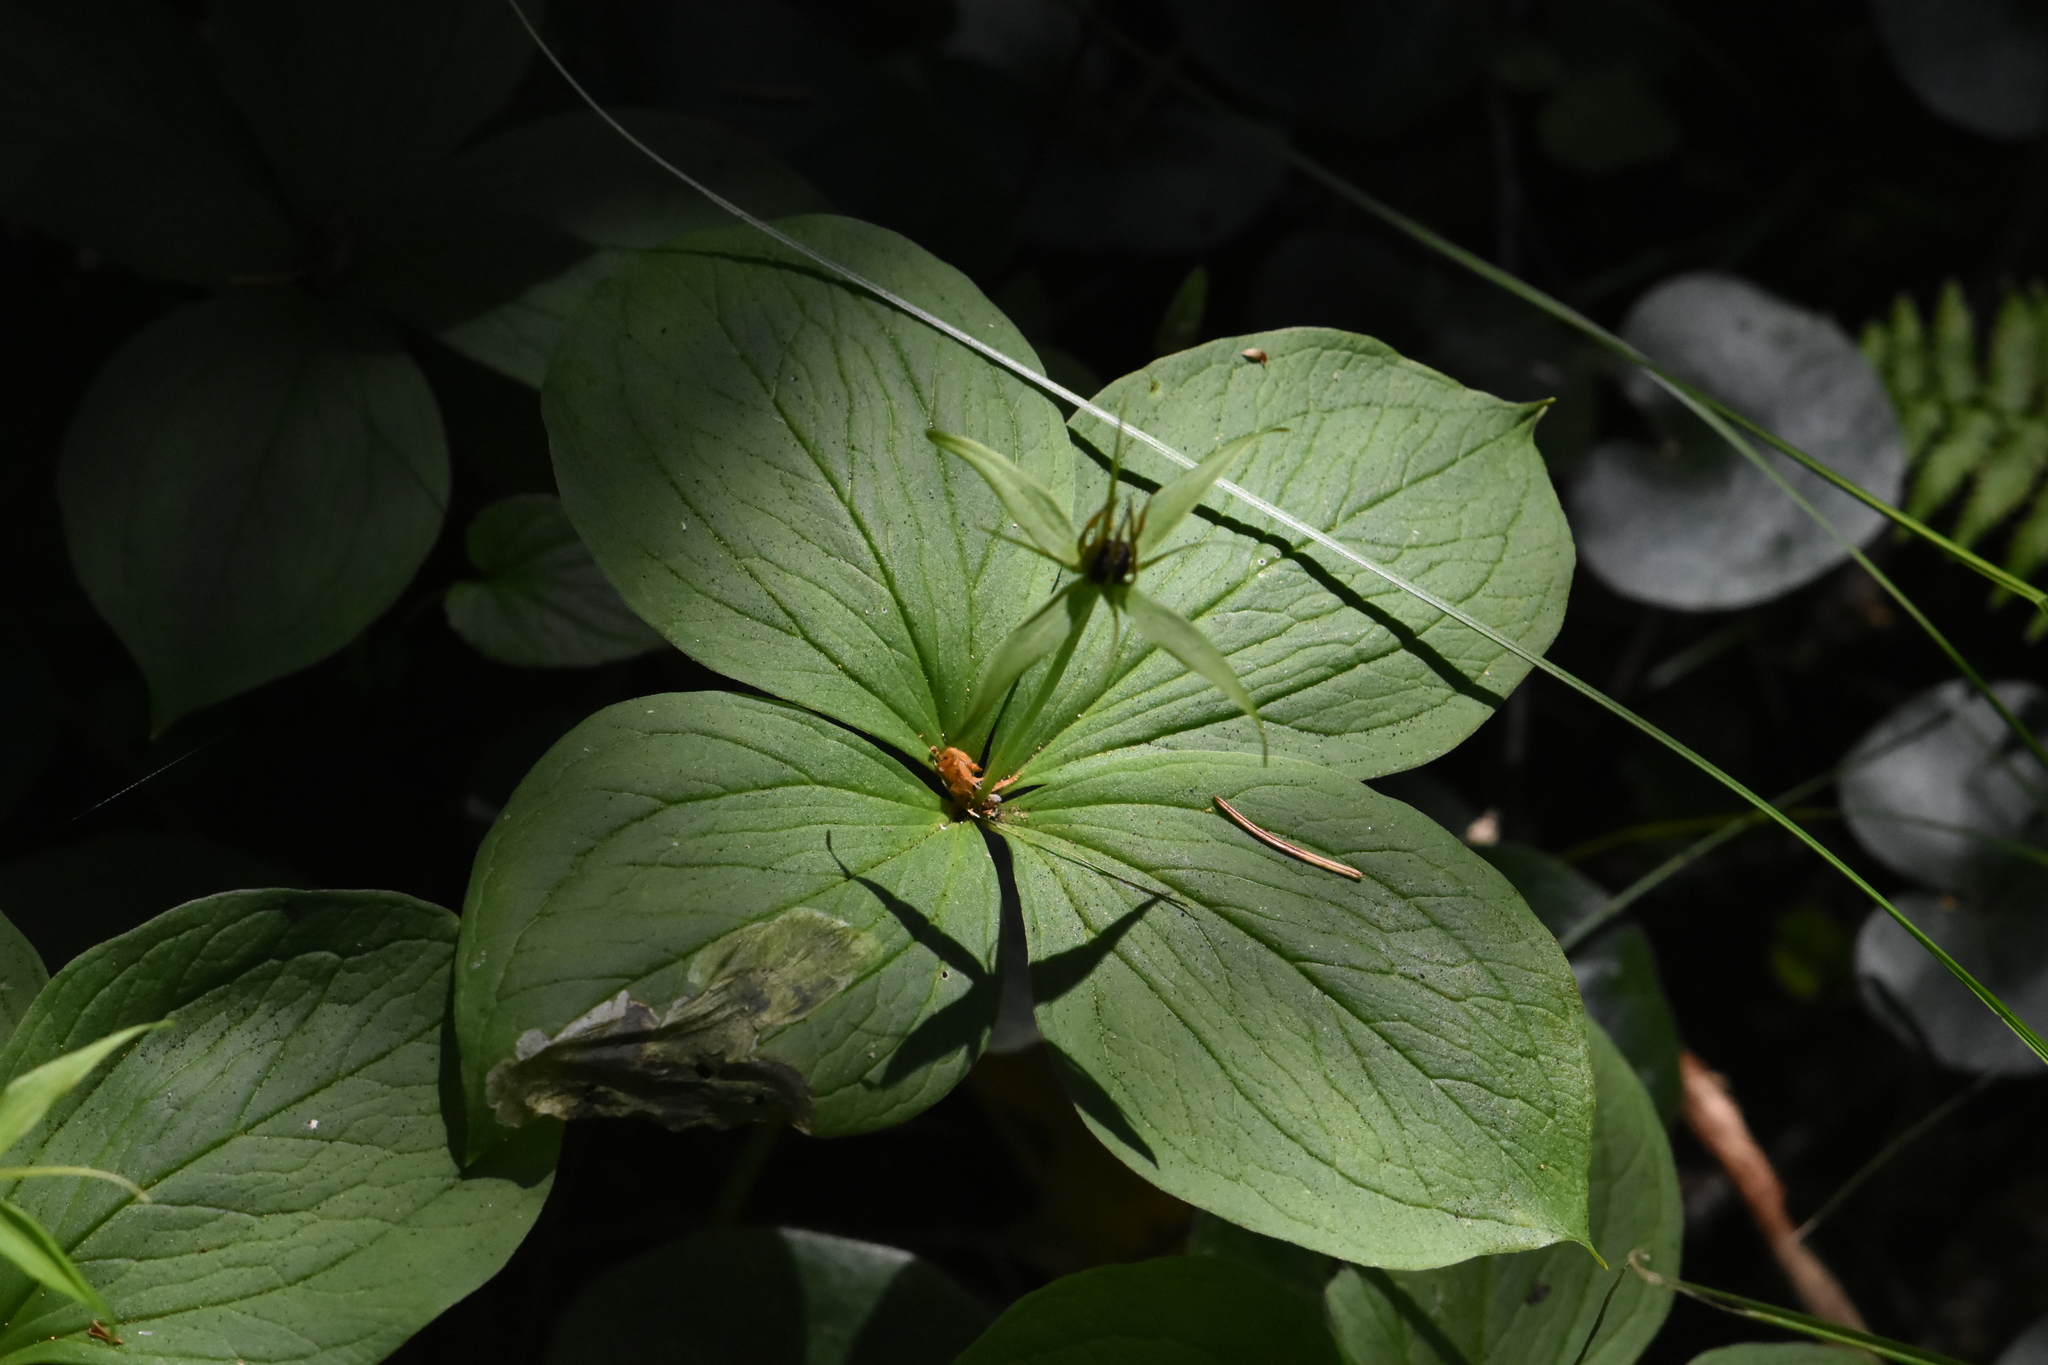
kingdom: Plantae
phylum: Tracheophyta
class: Liliopsida
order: Liliales
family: Melanthiaceae
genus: Paris
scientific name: Paris quadrifolia
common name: Herb-paris
